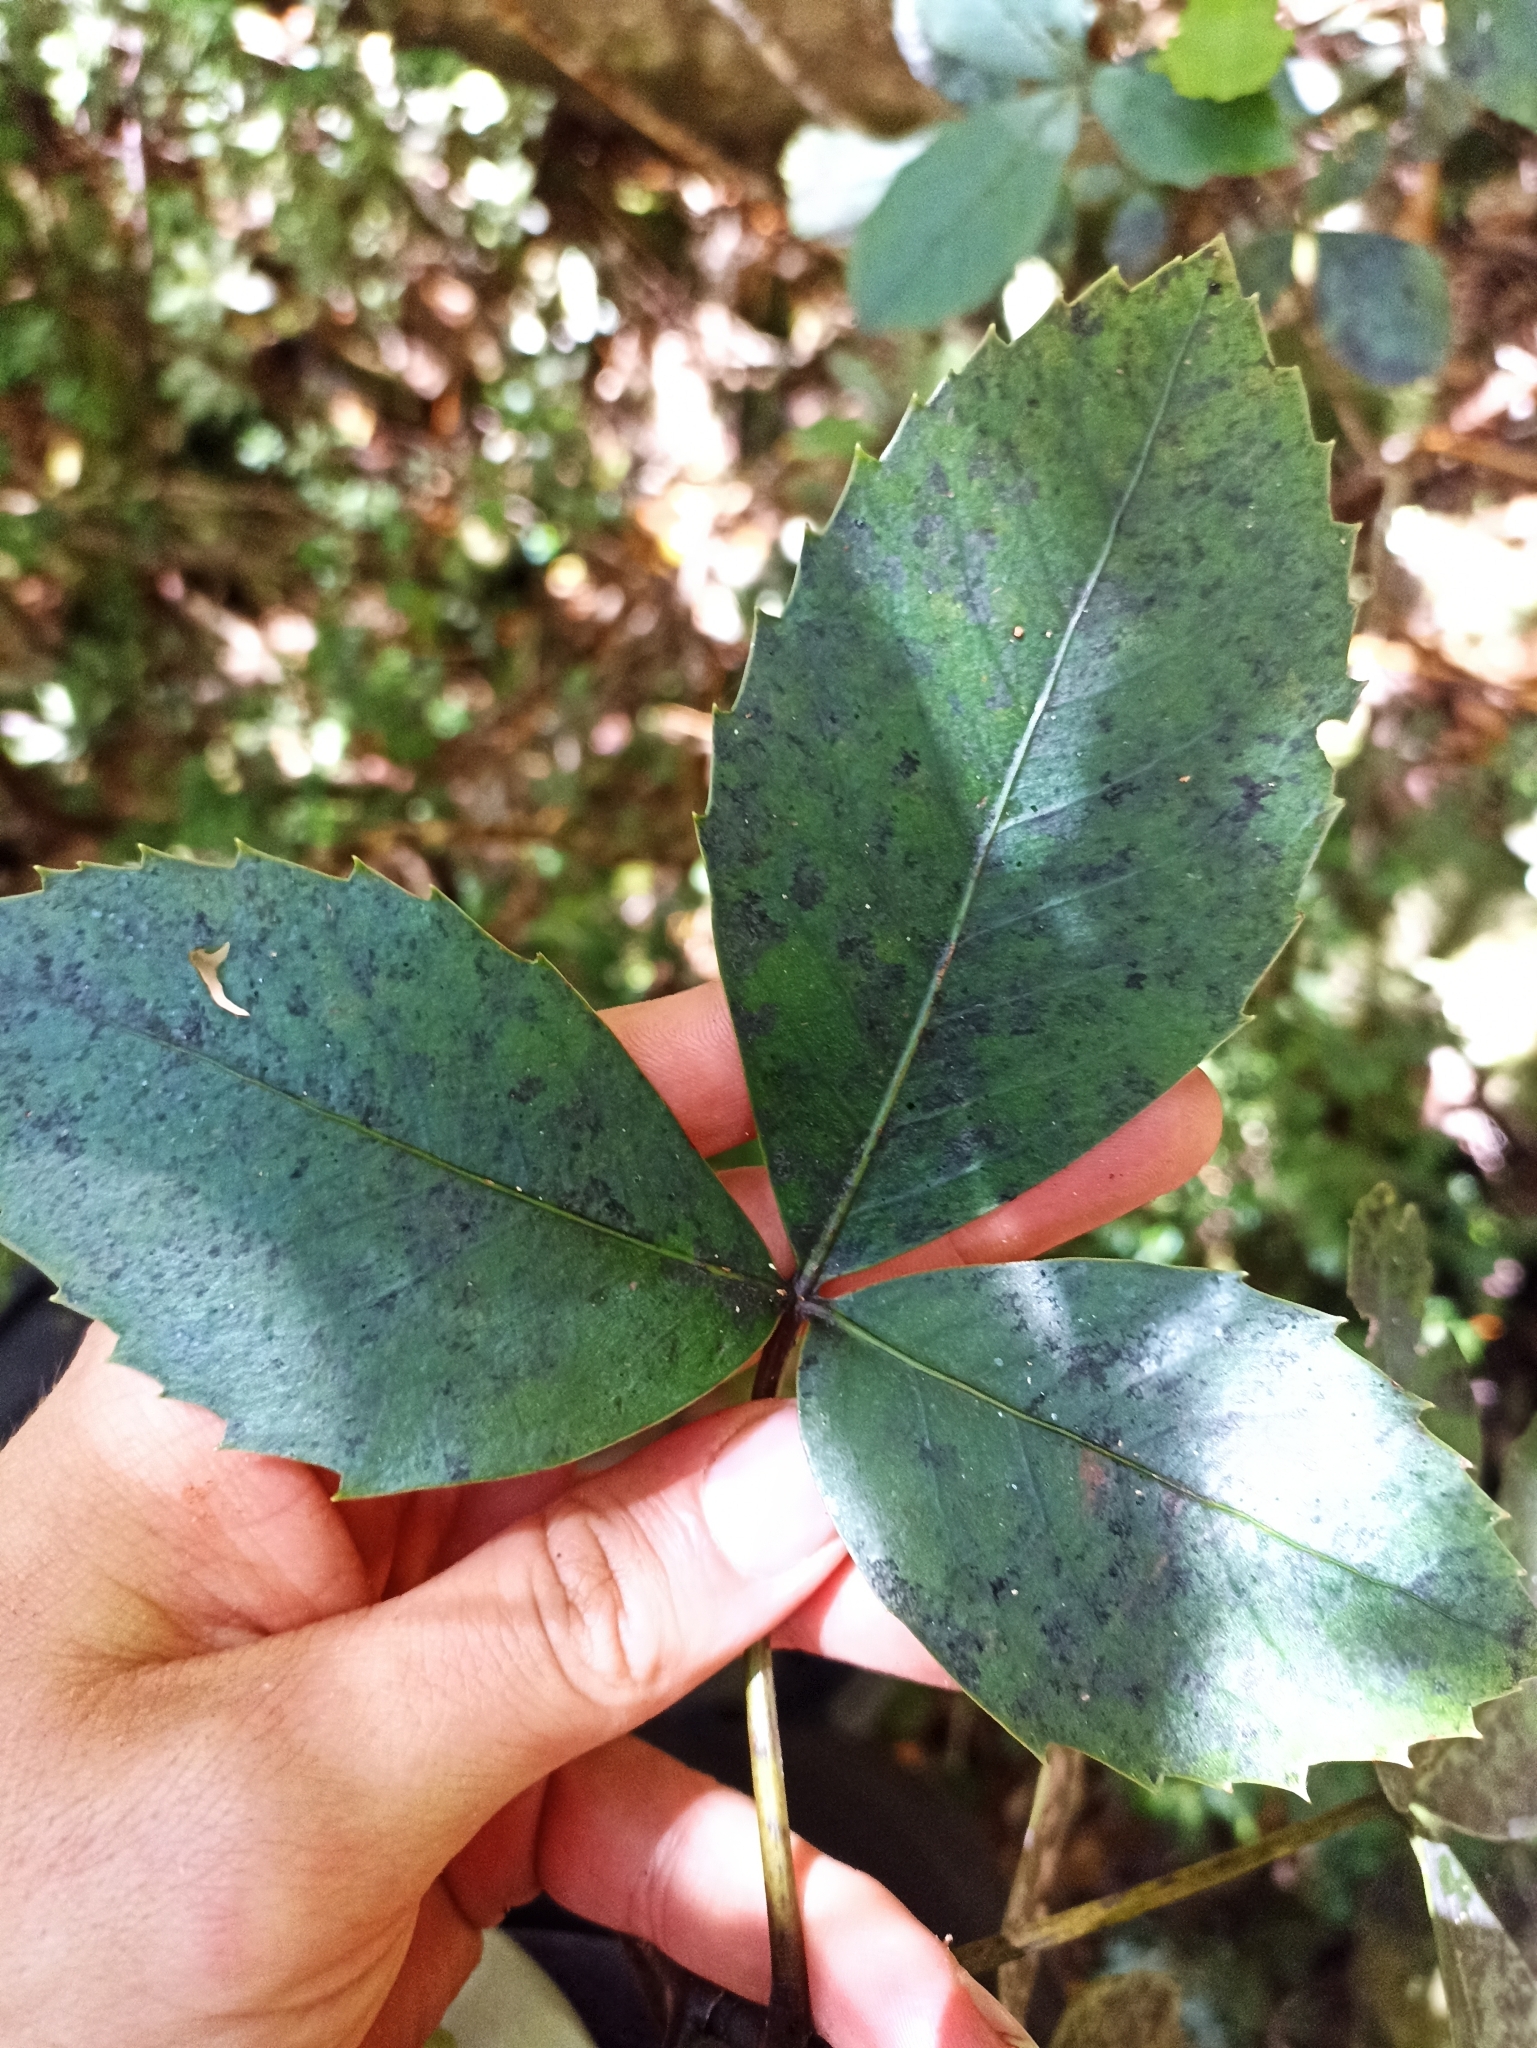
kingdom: Plantae
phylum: Tracheophyta
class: Magnoliopsida
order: Apiales
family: Araliaceae
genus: Neopanax
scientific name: Neopanax colensoi
